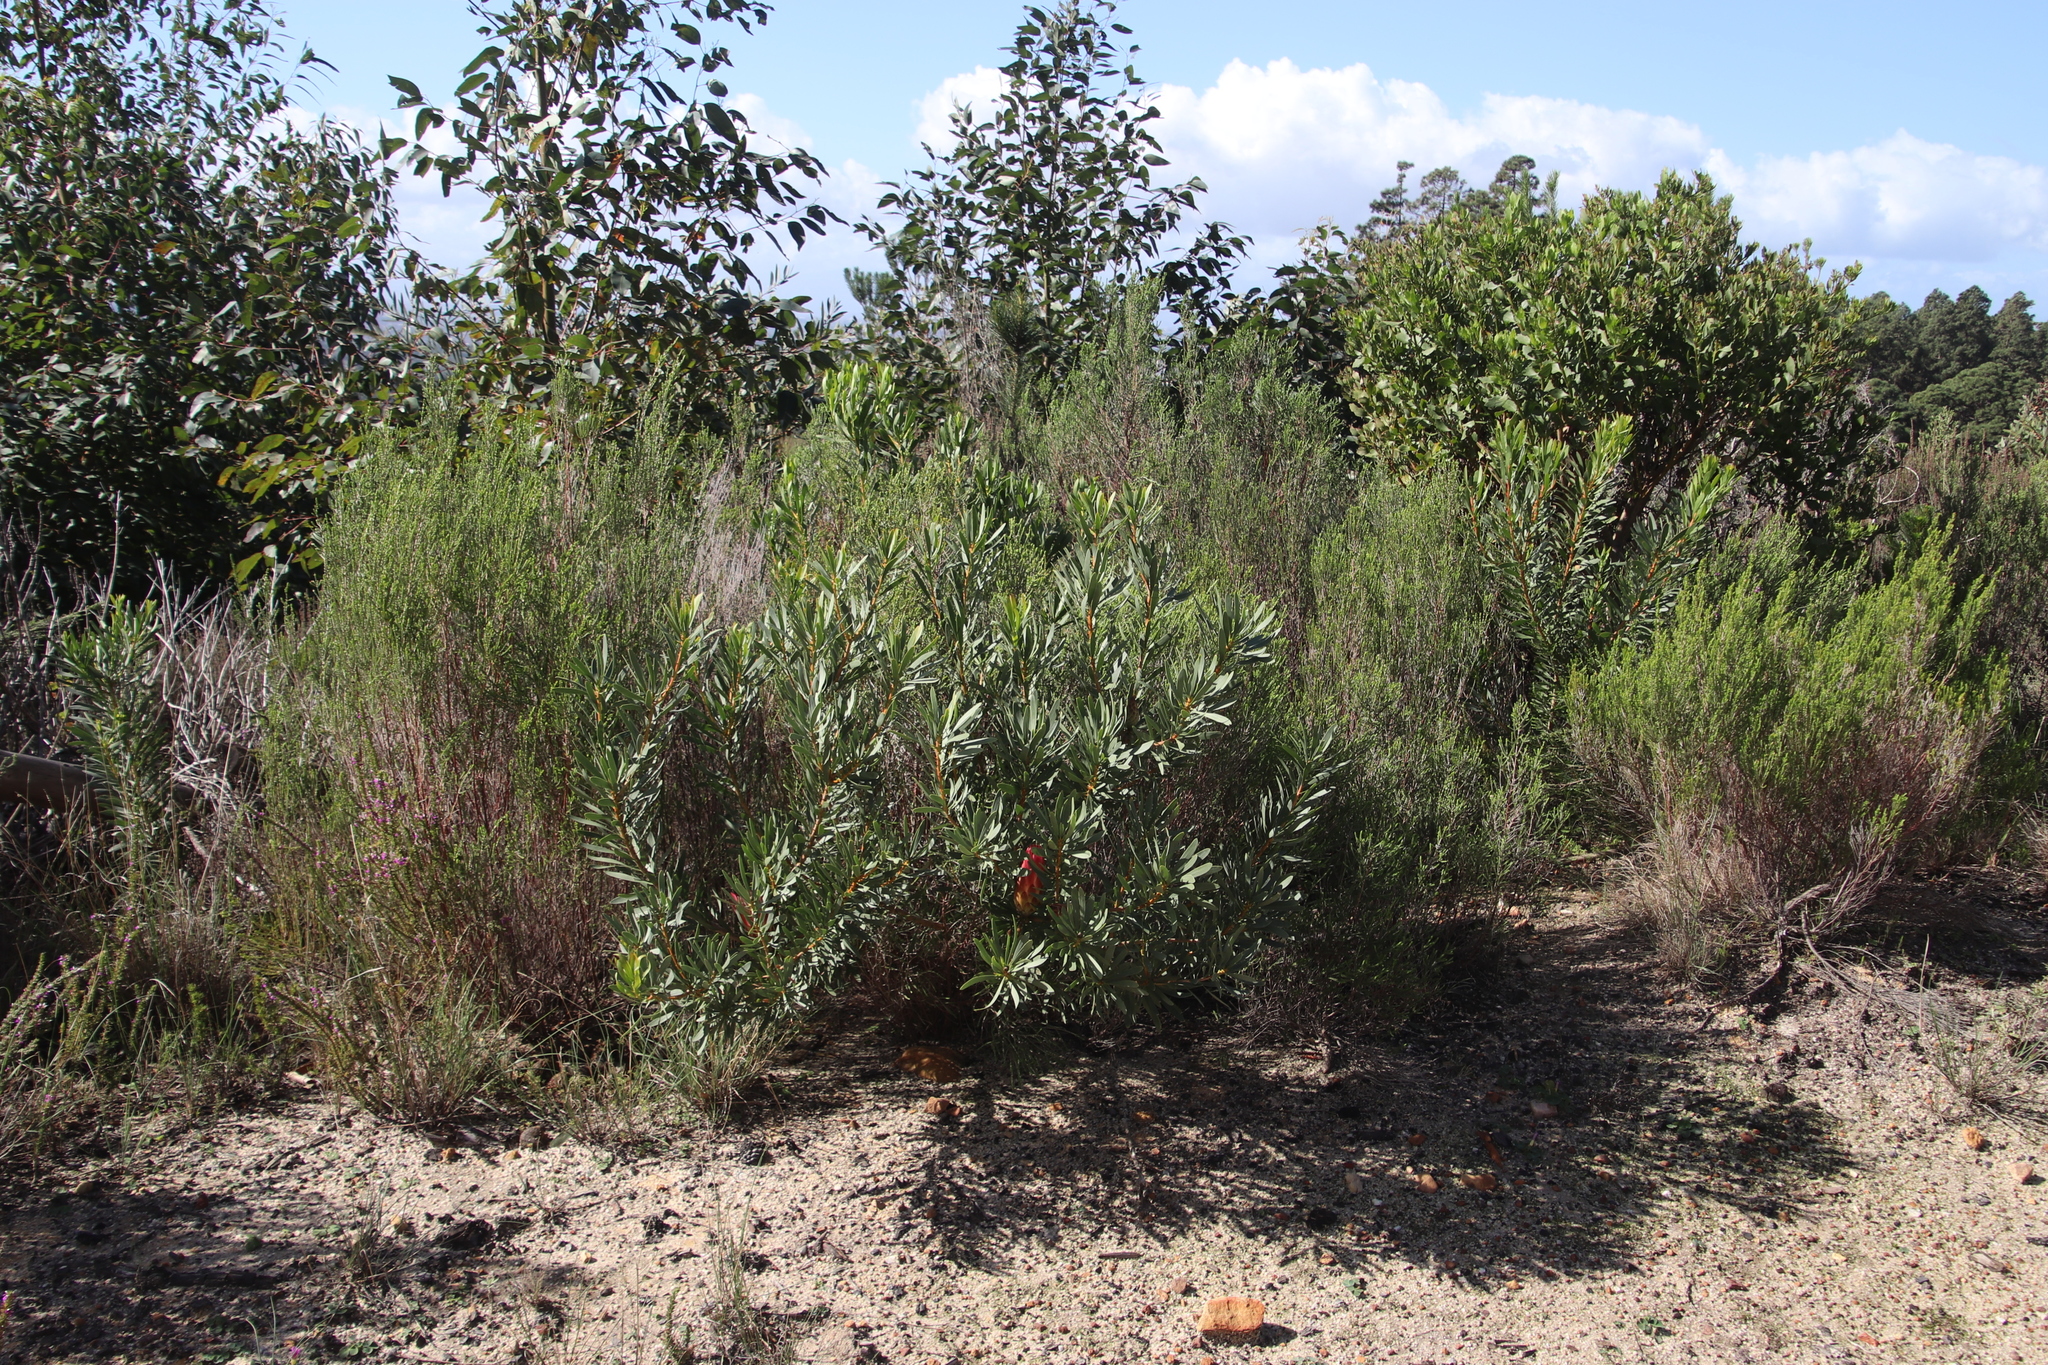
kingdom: Plantae
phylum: Tracheophyta
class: Magnoliopsida
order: Proteales
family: Proteaceae
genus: Protea
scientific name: Protea repens
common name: Sugarbush
